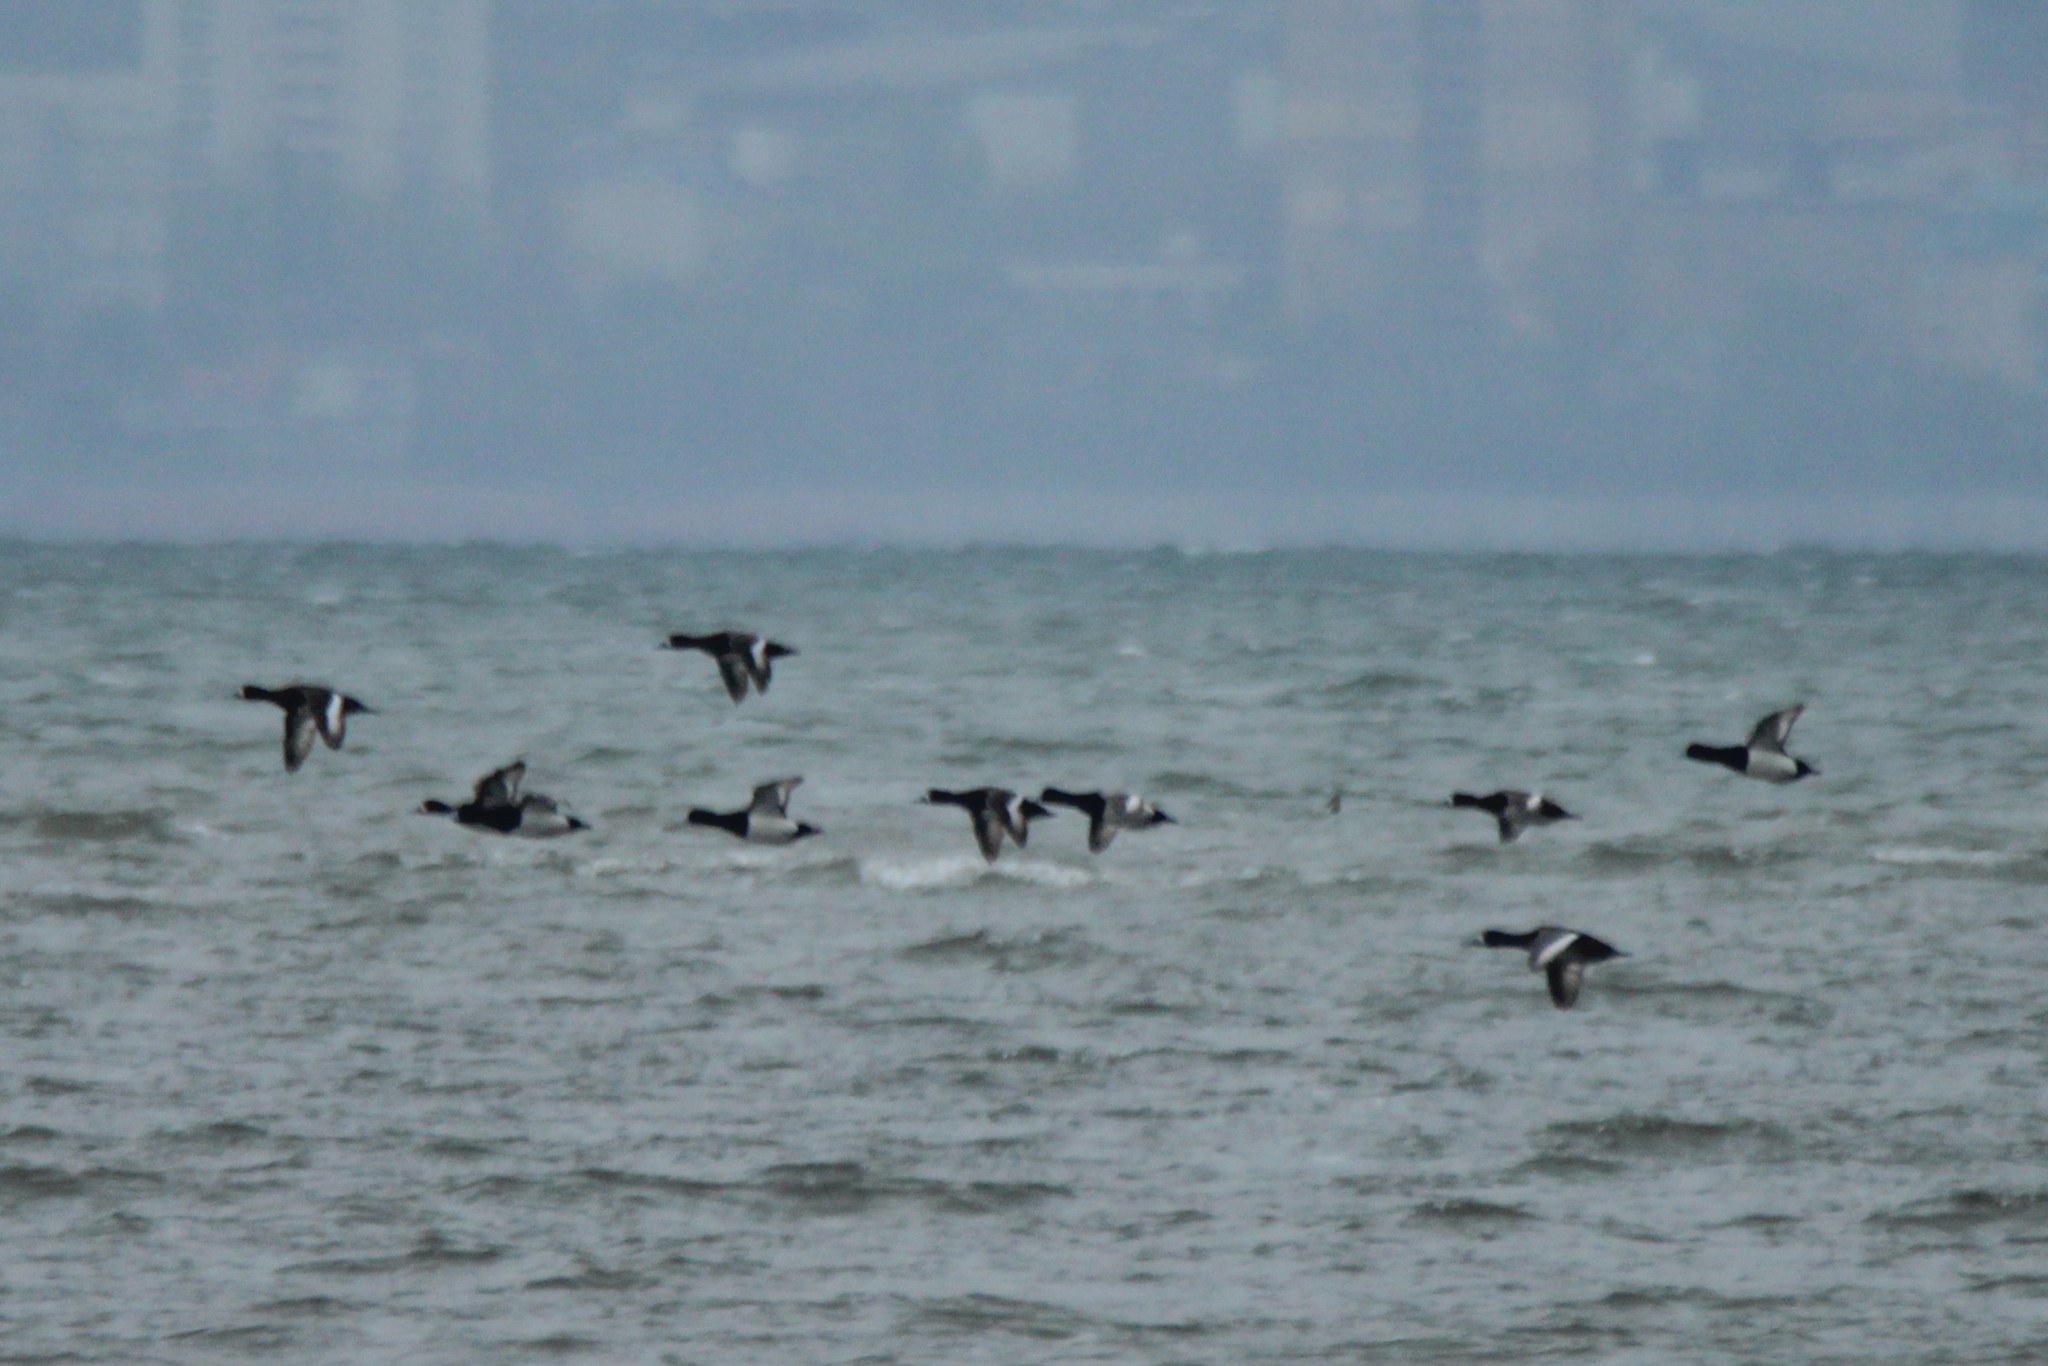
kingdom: Animalia
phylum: Chordata
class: Aves
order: Anseriformes
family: Anatidae
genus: Aythya
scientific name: Aythya marila
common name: Greater scaup
